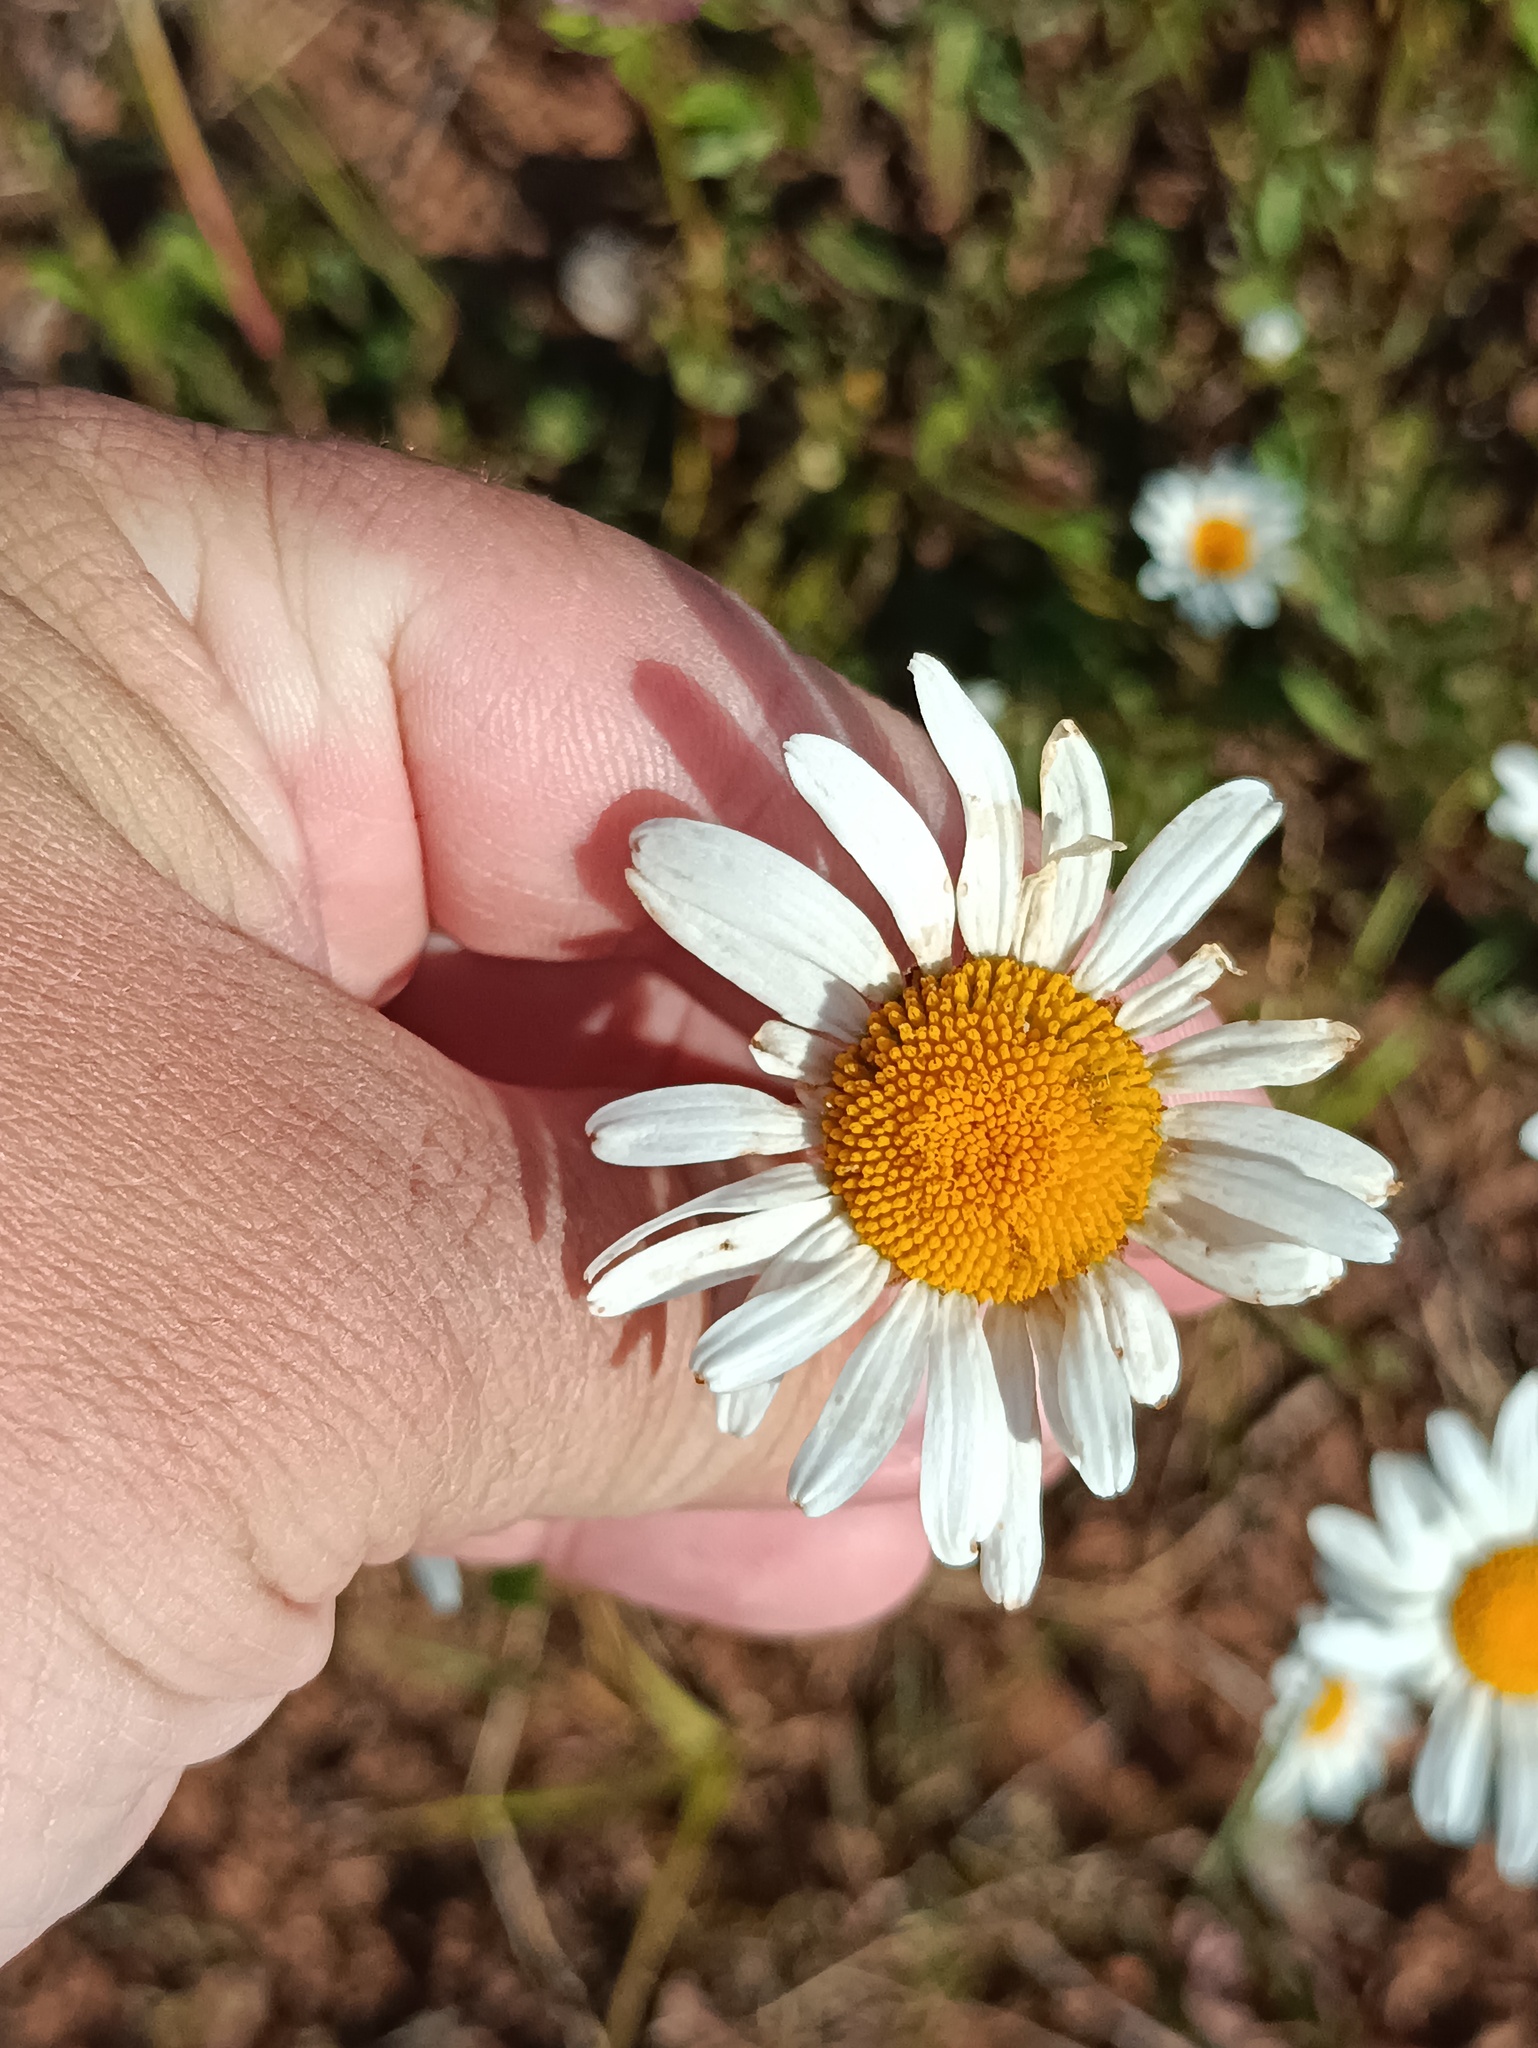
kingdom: Plantae
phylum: Tracheophyta
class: Magnoliopsida
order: Asterales
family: Asteraceae
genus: Leucanthemum
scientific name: Leucanthemum vulgare
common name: Oxeye daisy
